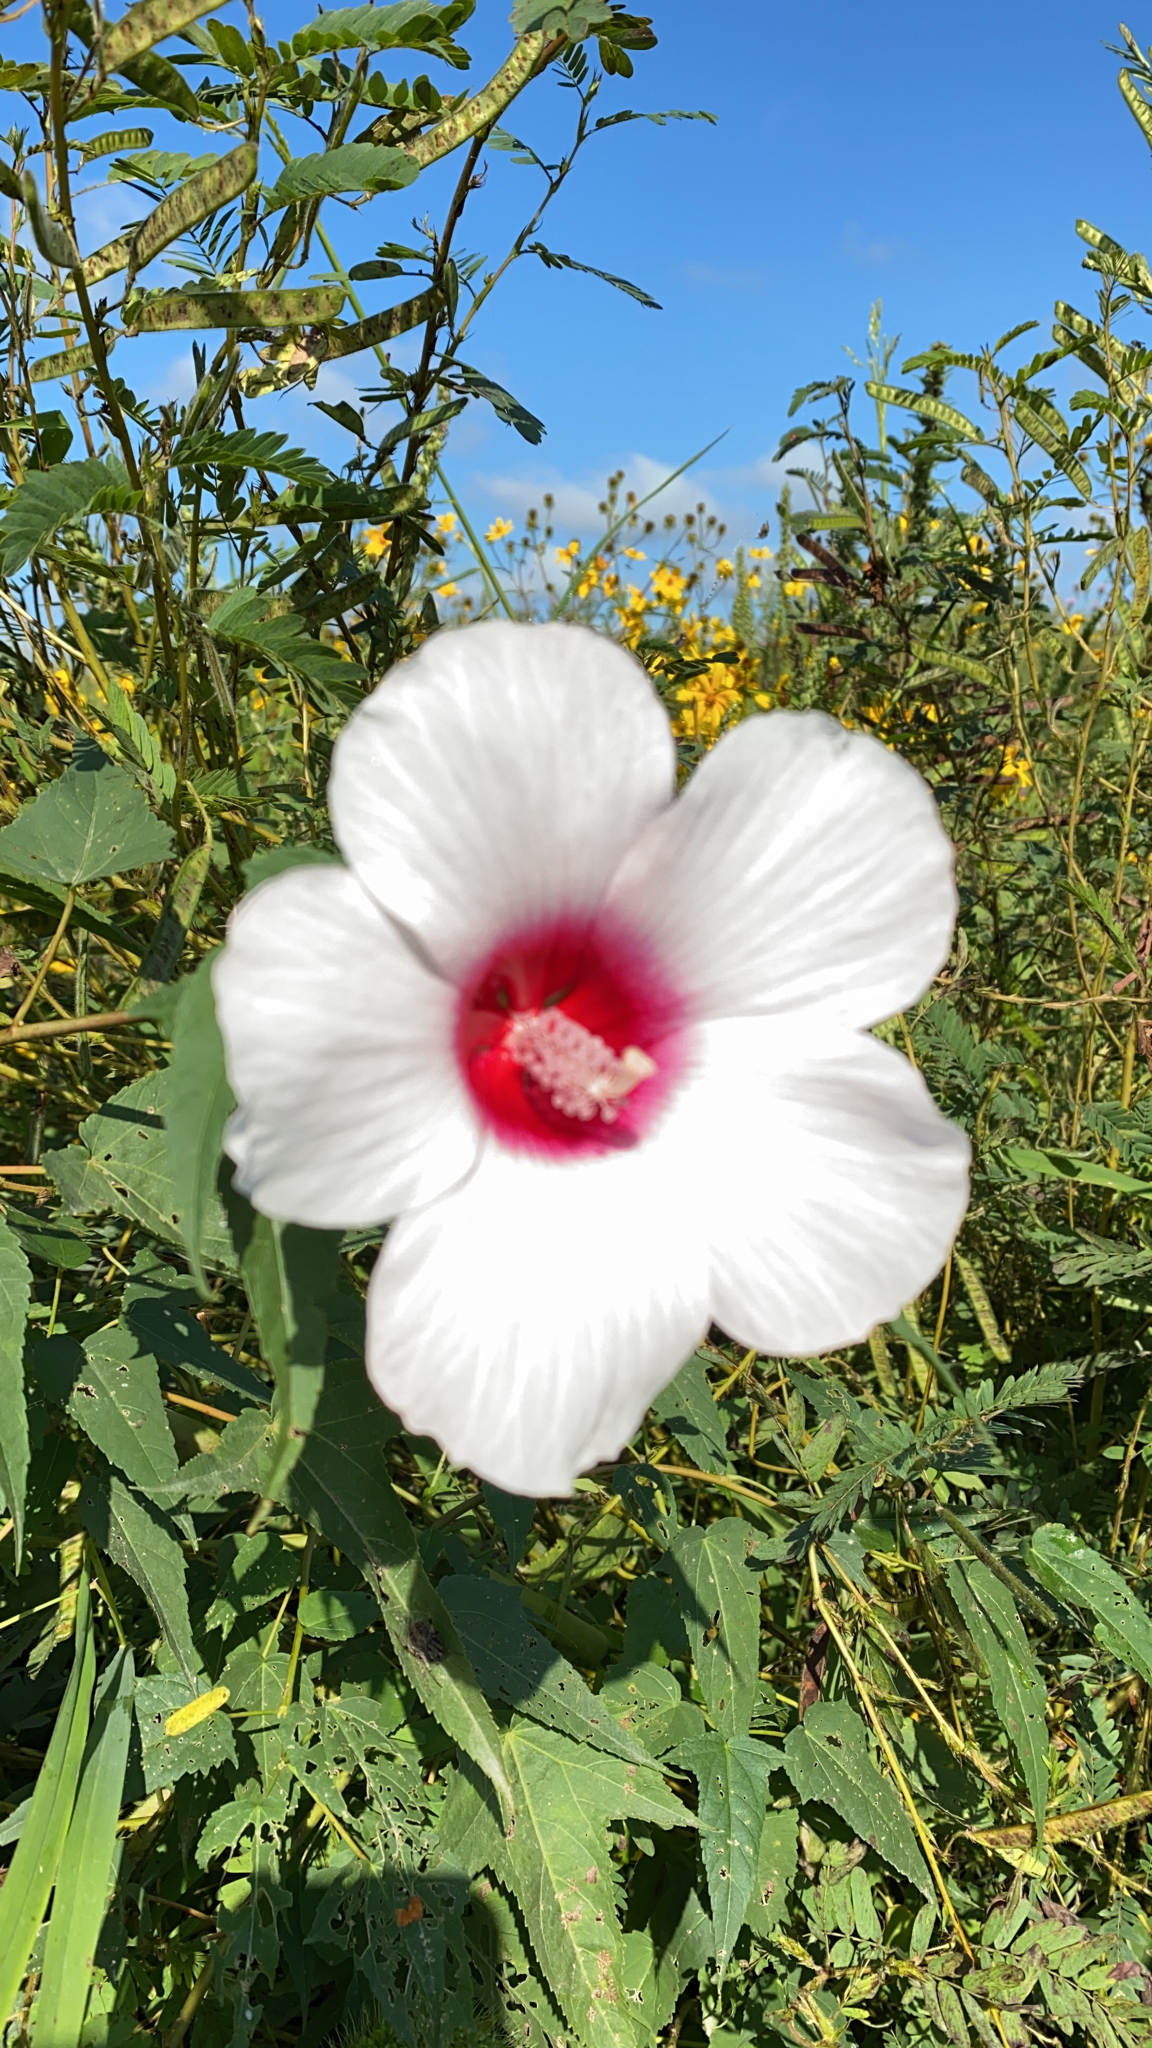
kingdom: Plantae
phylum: Tracheophyta
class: Magnoliopsida
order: Malvales
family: Malvaceae
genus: Hibiscus
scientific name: Hibiscus laevis
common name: Scarlet rose-mallow
